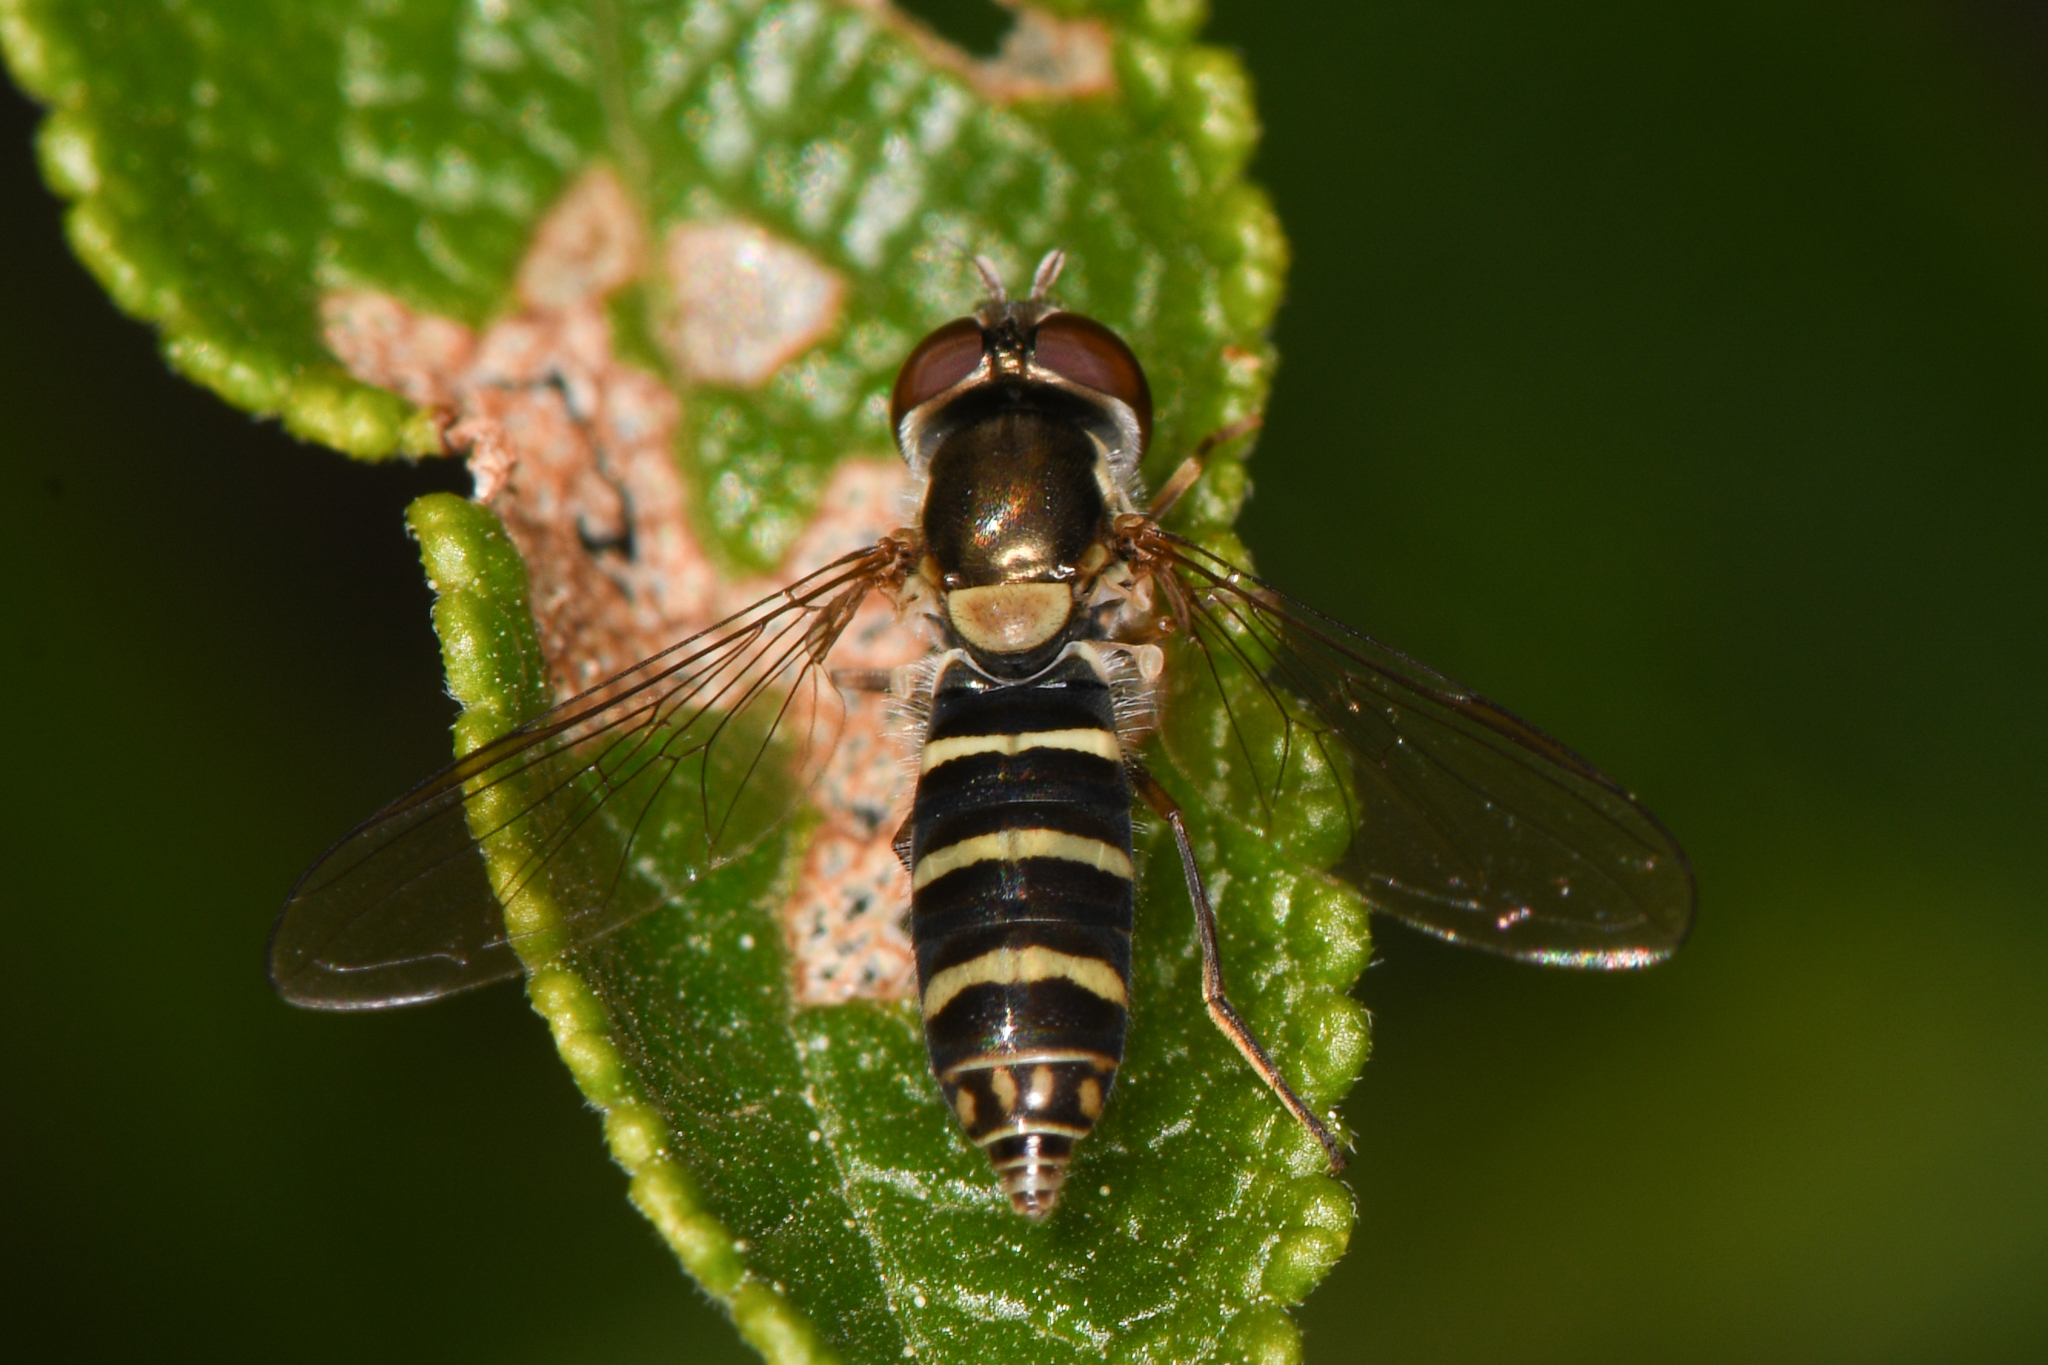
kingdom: Animalia
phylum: Arthropoda
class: Insecta
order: Diptera
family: Syrphidae
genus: Fazia
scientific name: Fazia micrura
